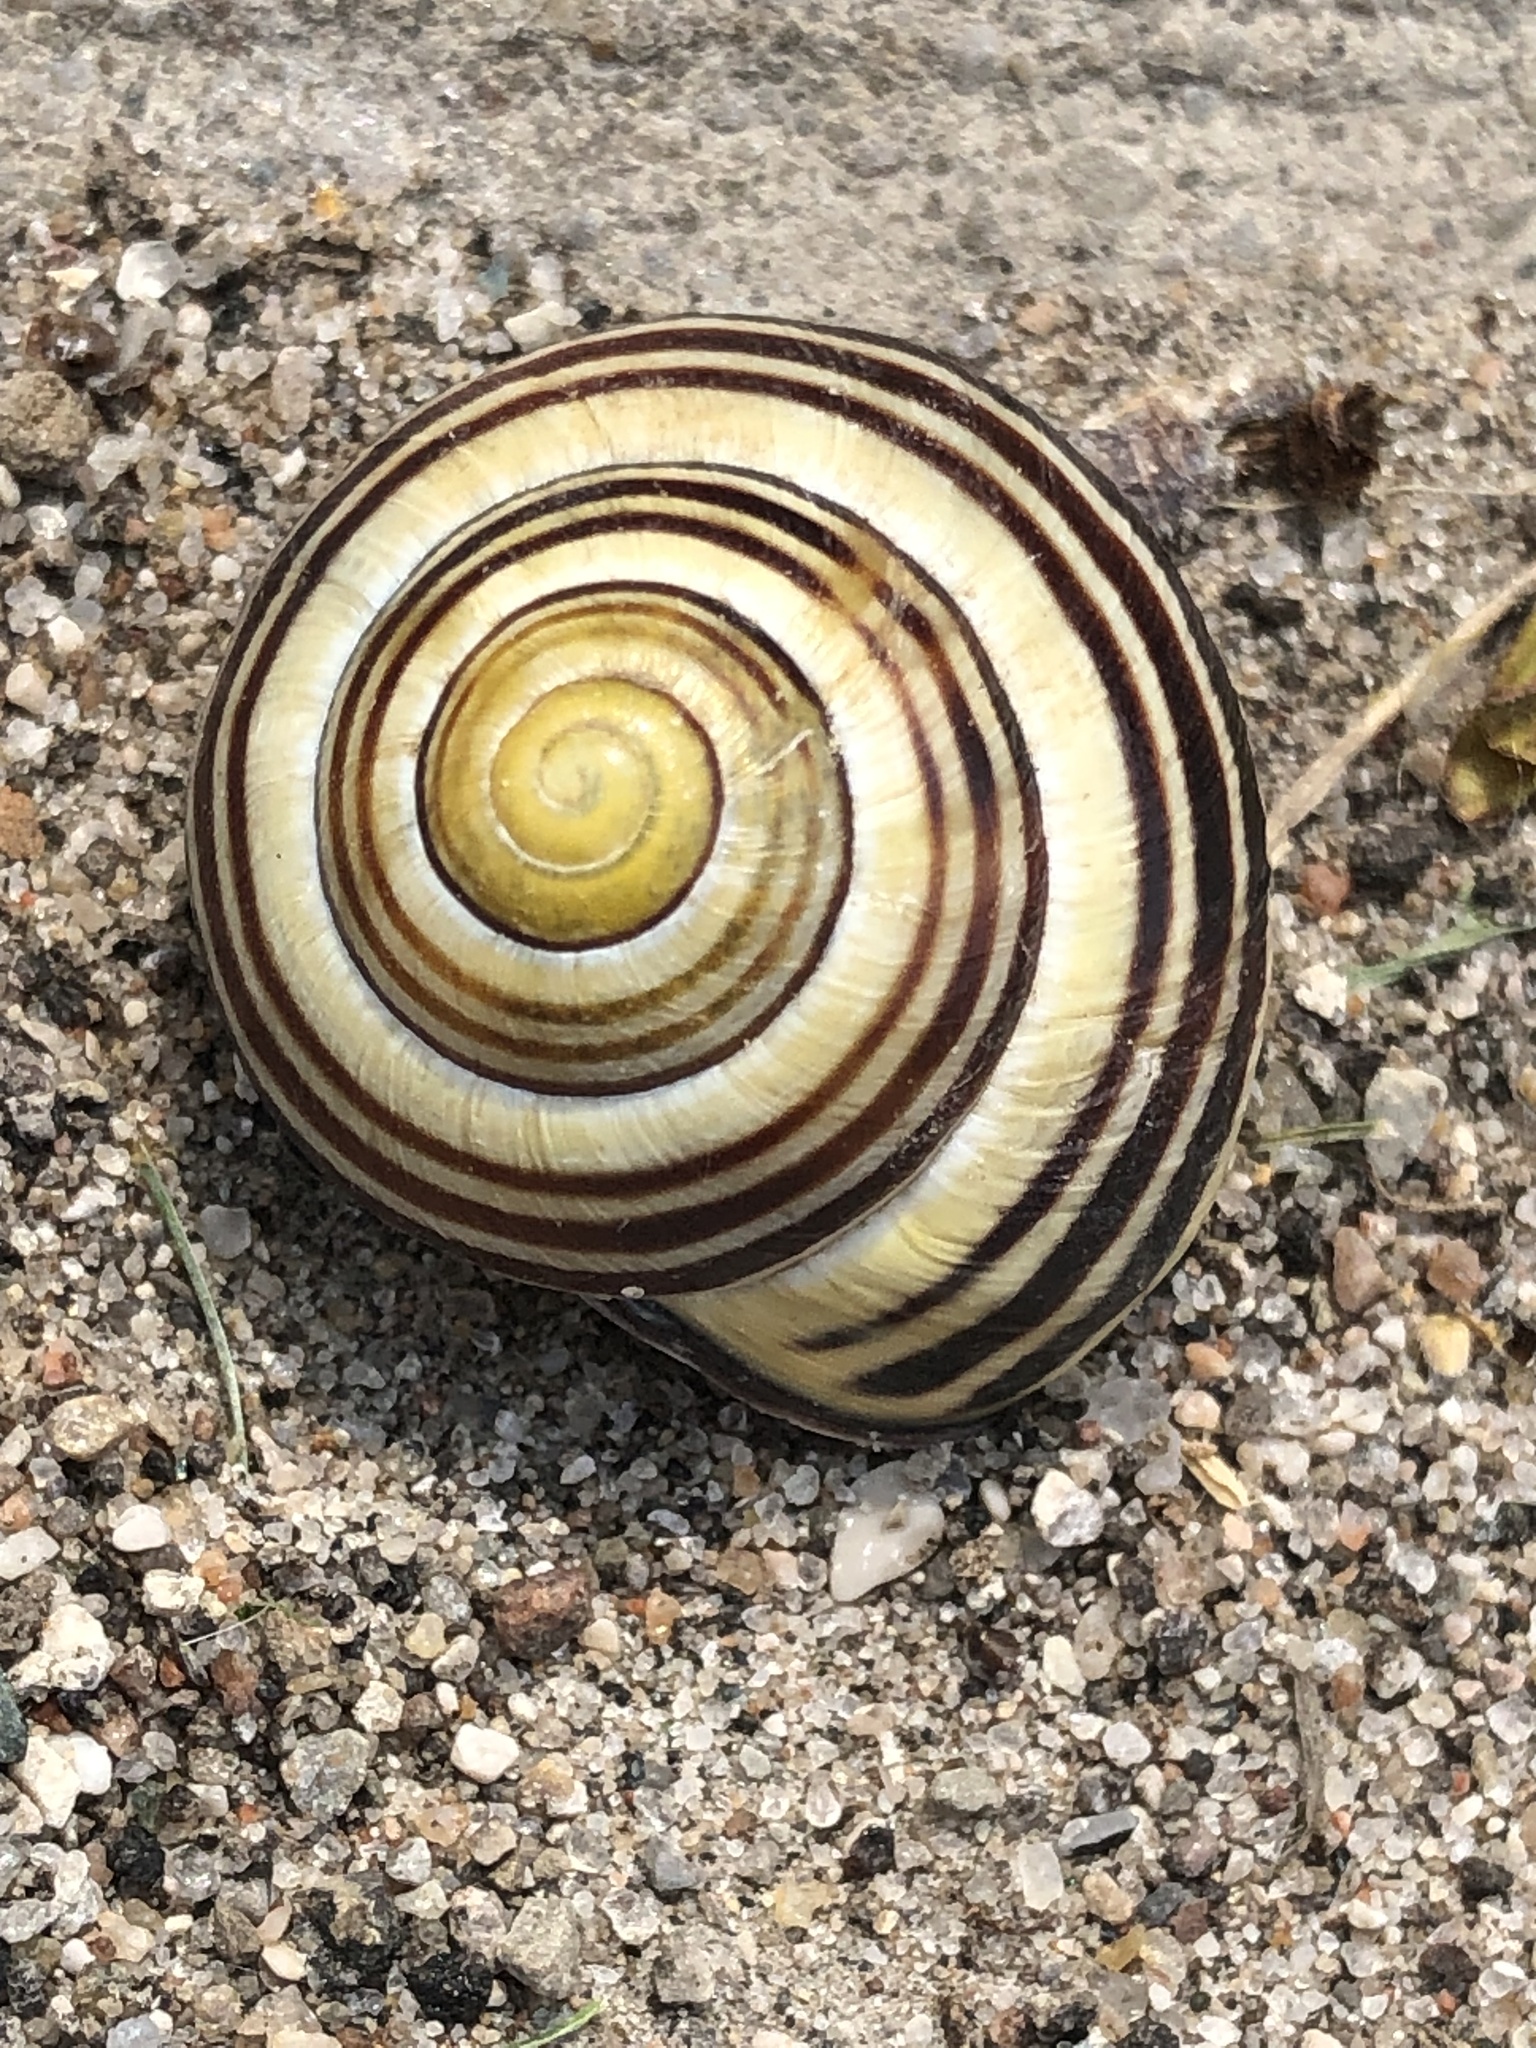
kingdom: Animalia
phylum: Mollusca
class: Gastropoda
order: Stylommatophora
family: Helicidae
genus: Cepaea
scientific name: Cepaea nemoralis
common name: Grovesnail
